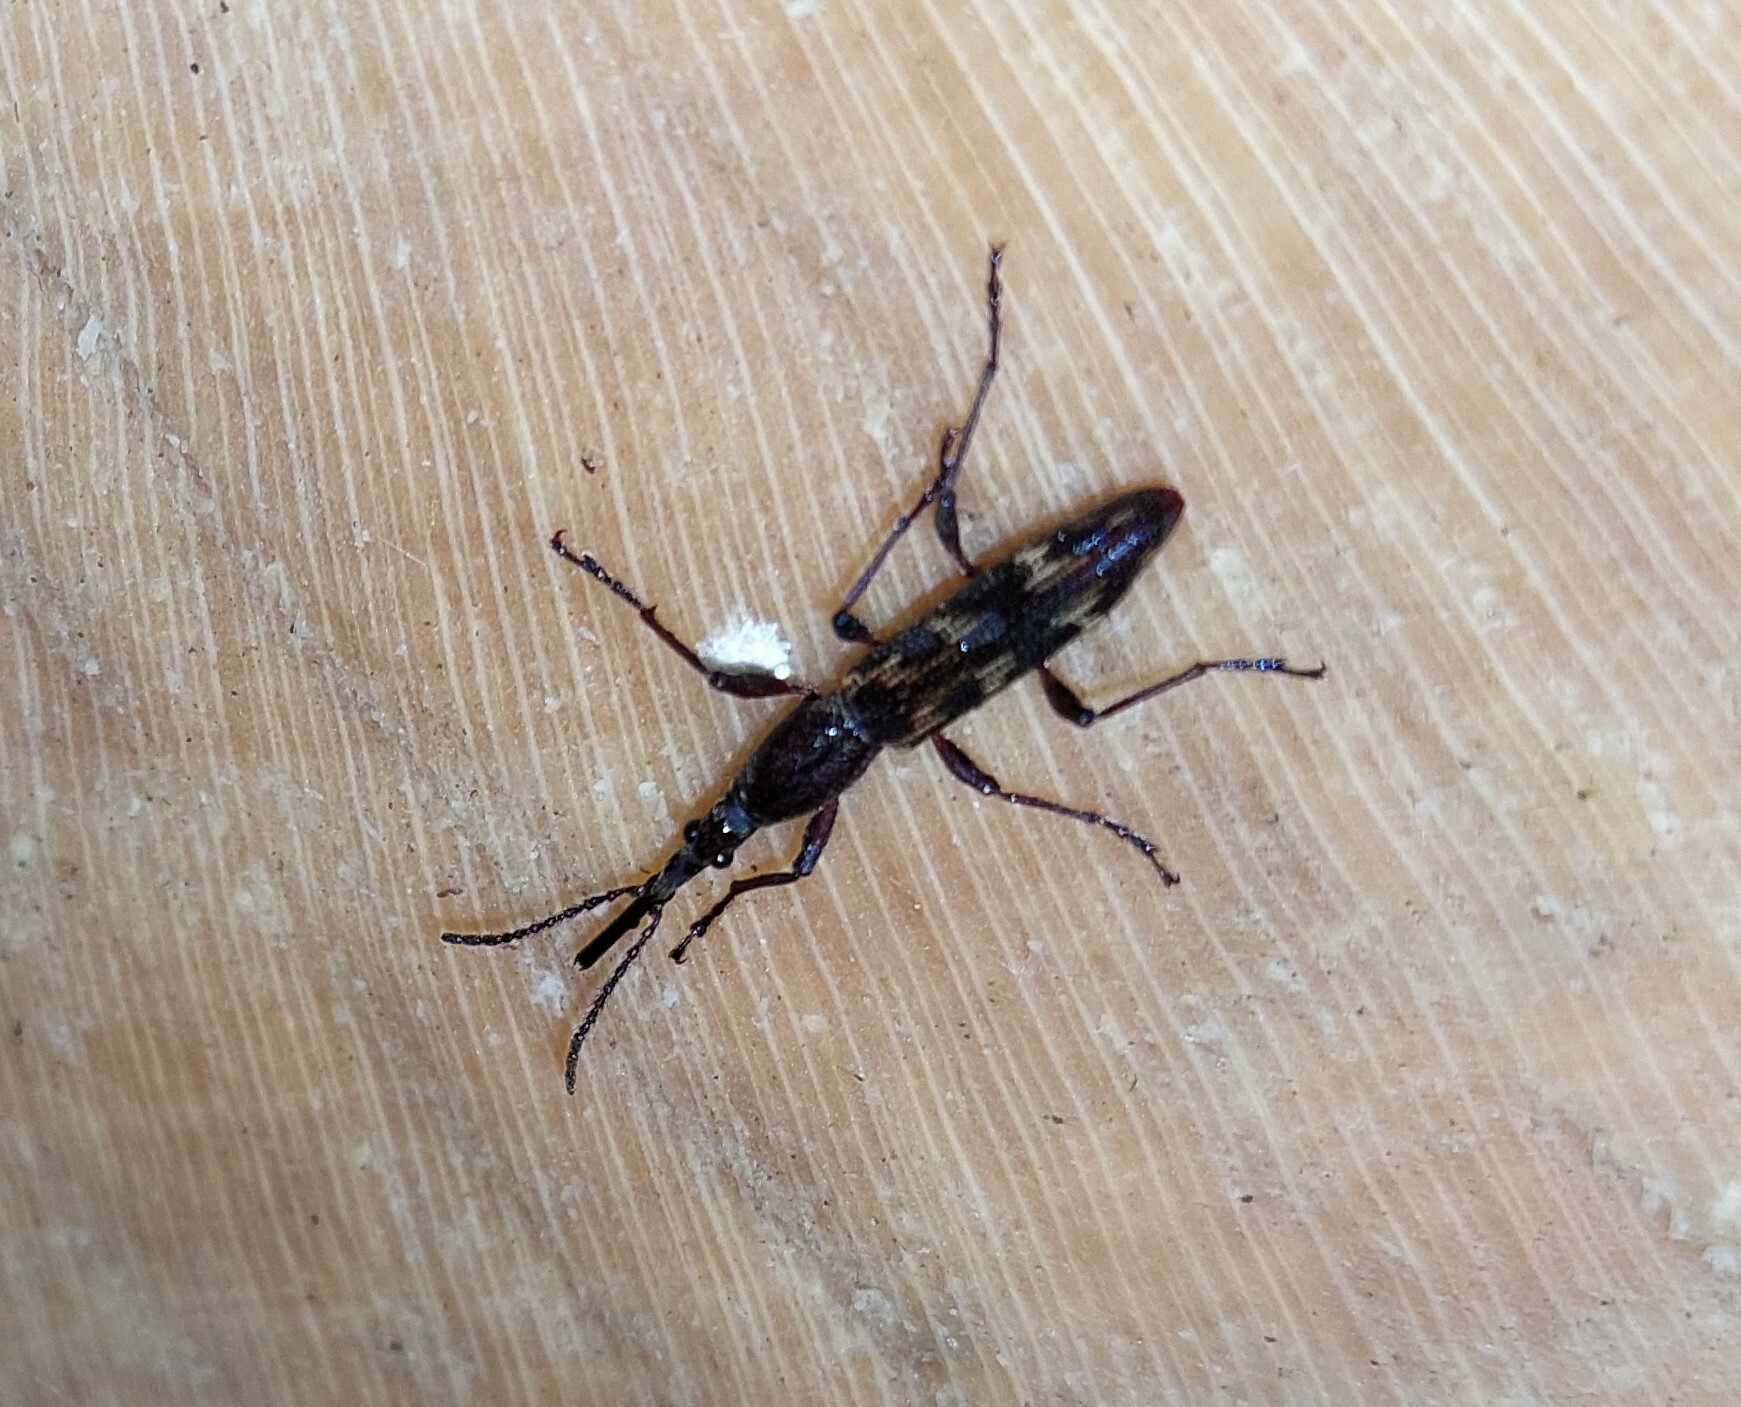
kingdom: Animalia
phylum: Arthropoda
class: Insecta
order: Coleoptera
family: Brentidae
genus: Lasiorhynchus
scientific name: Lasiorhynchus barbicornis
